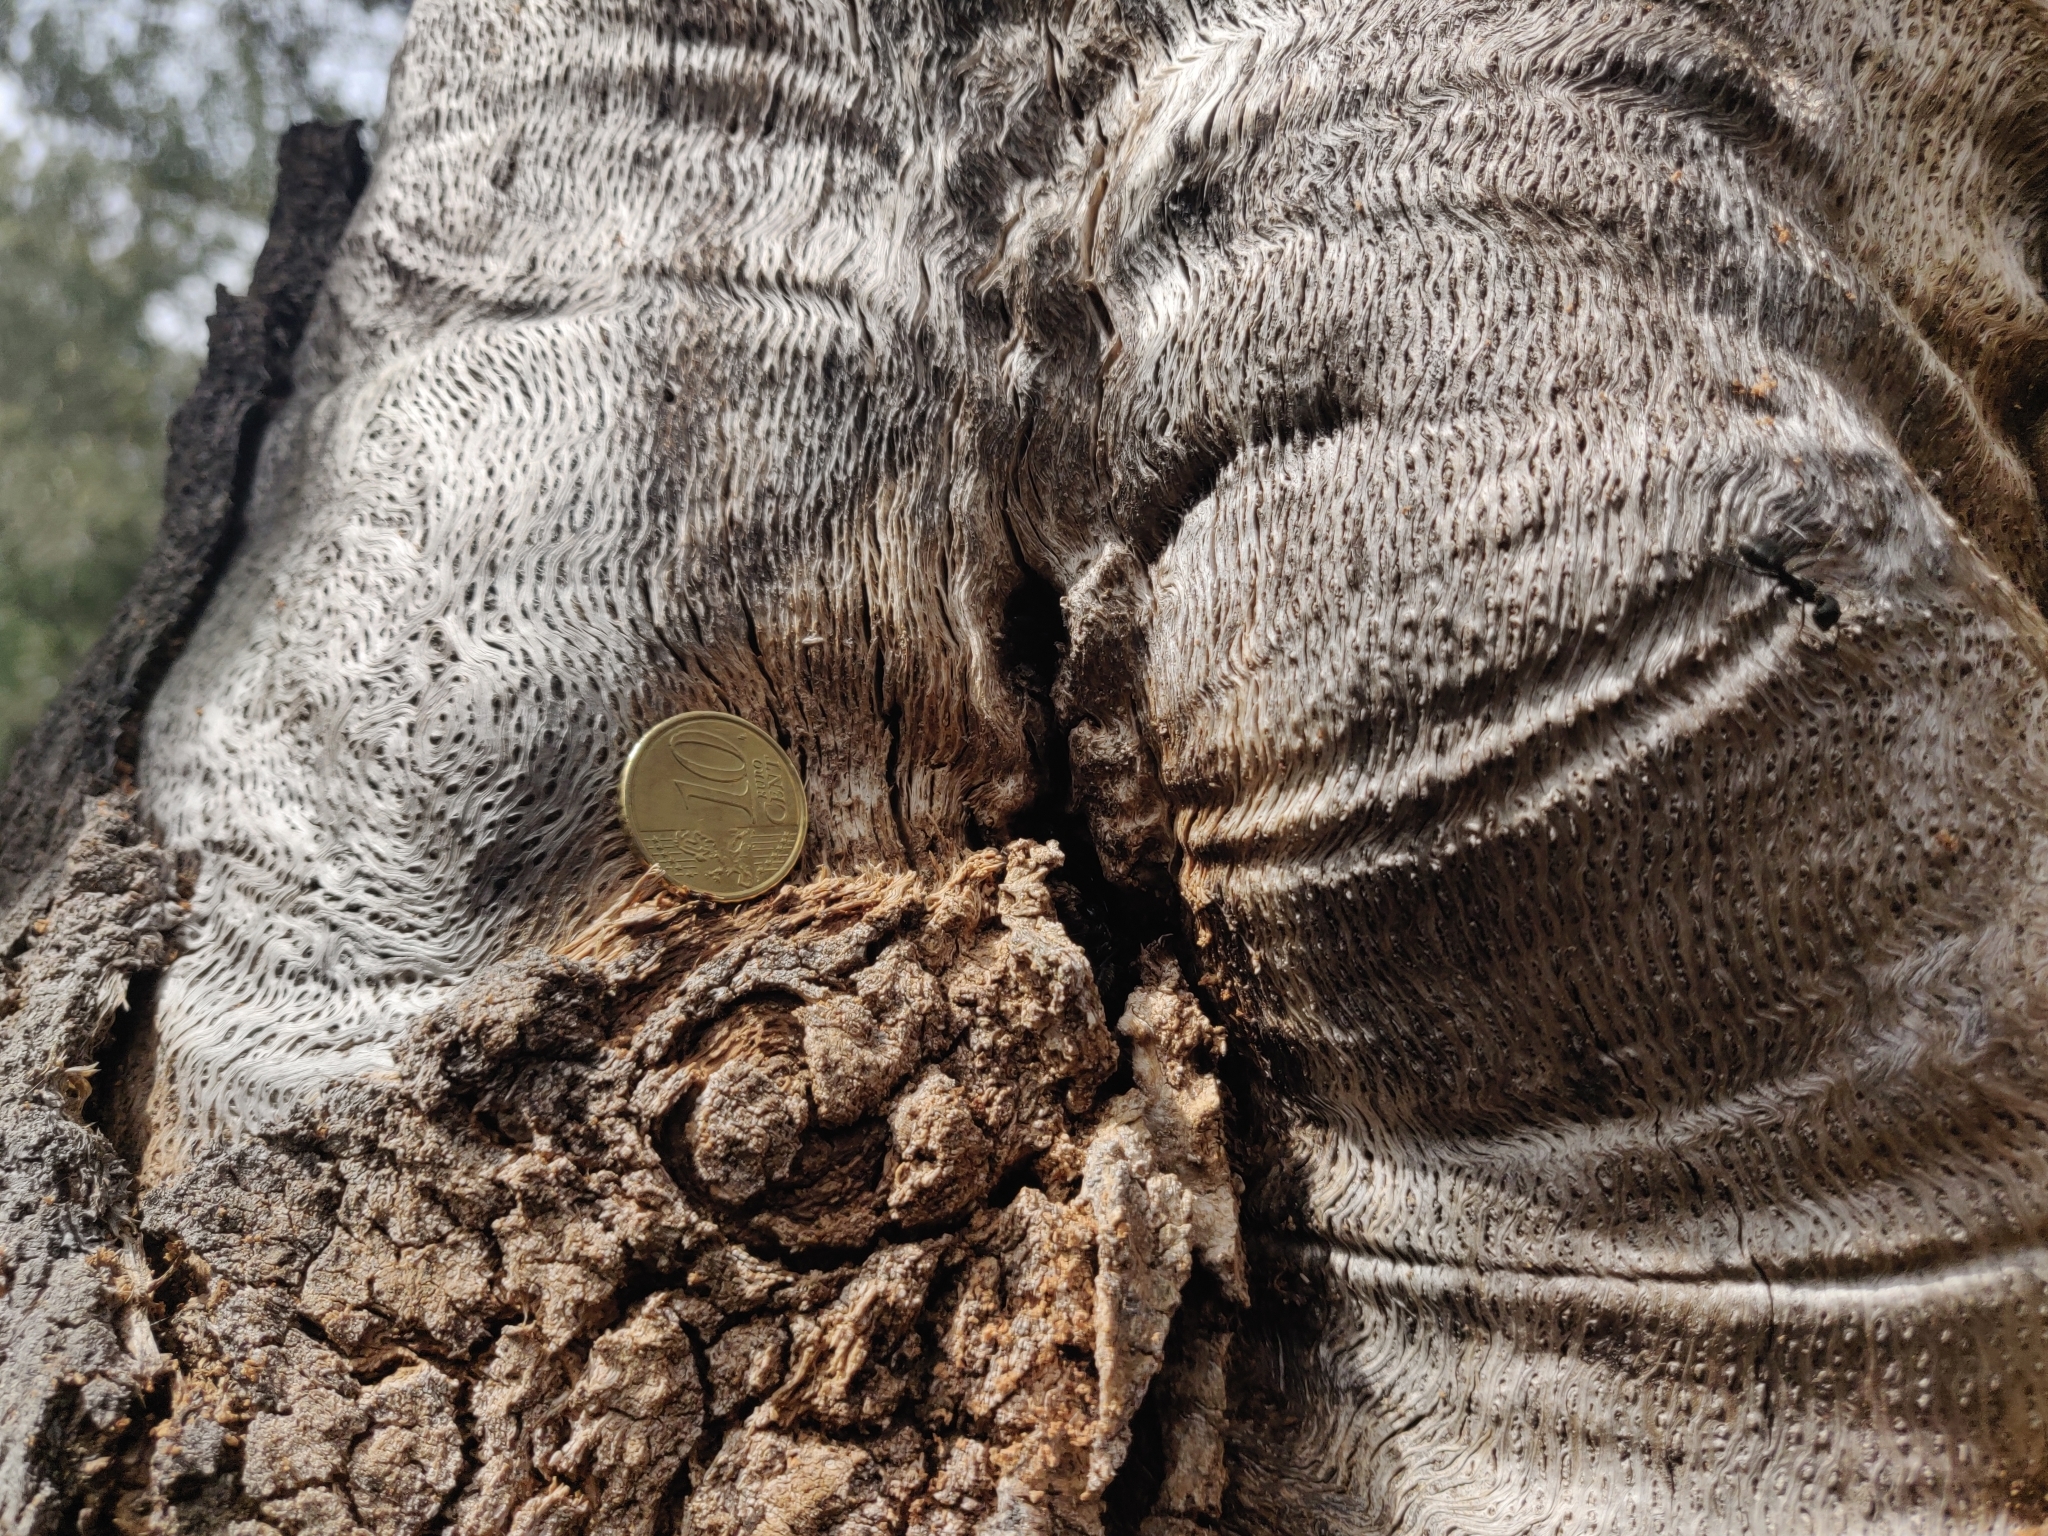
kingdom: Animalia
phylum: Arthropoda
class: Insecta
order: Hymenoptera
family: Formicidae
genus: Camponotus
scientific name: Camponotus vagus
